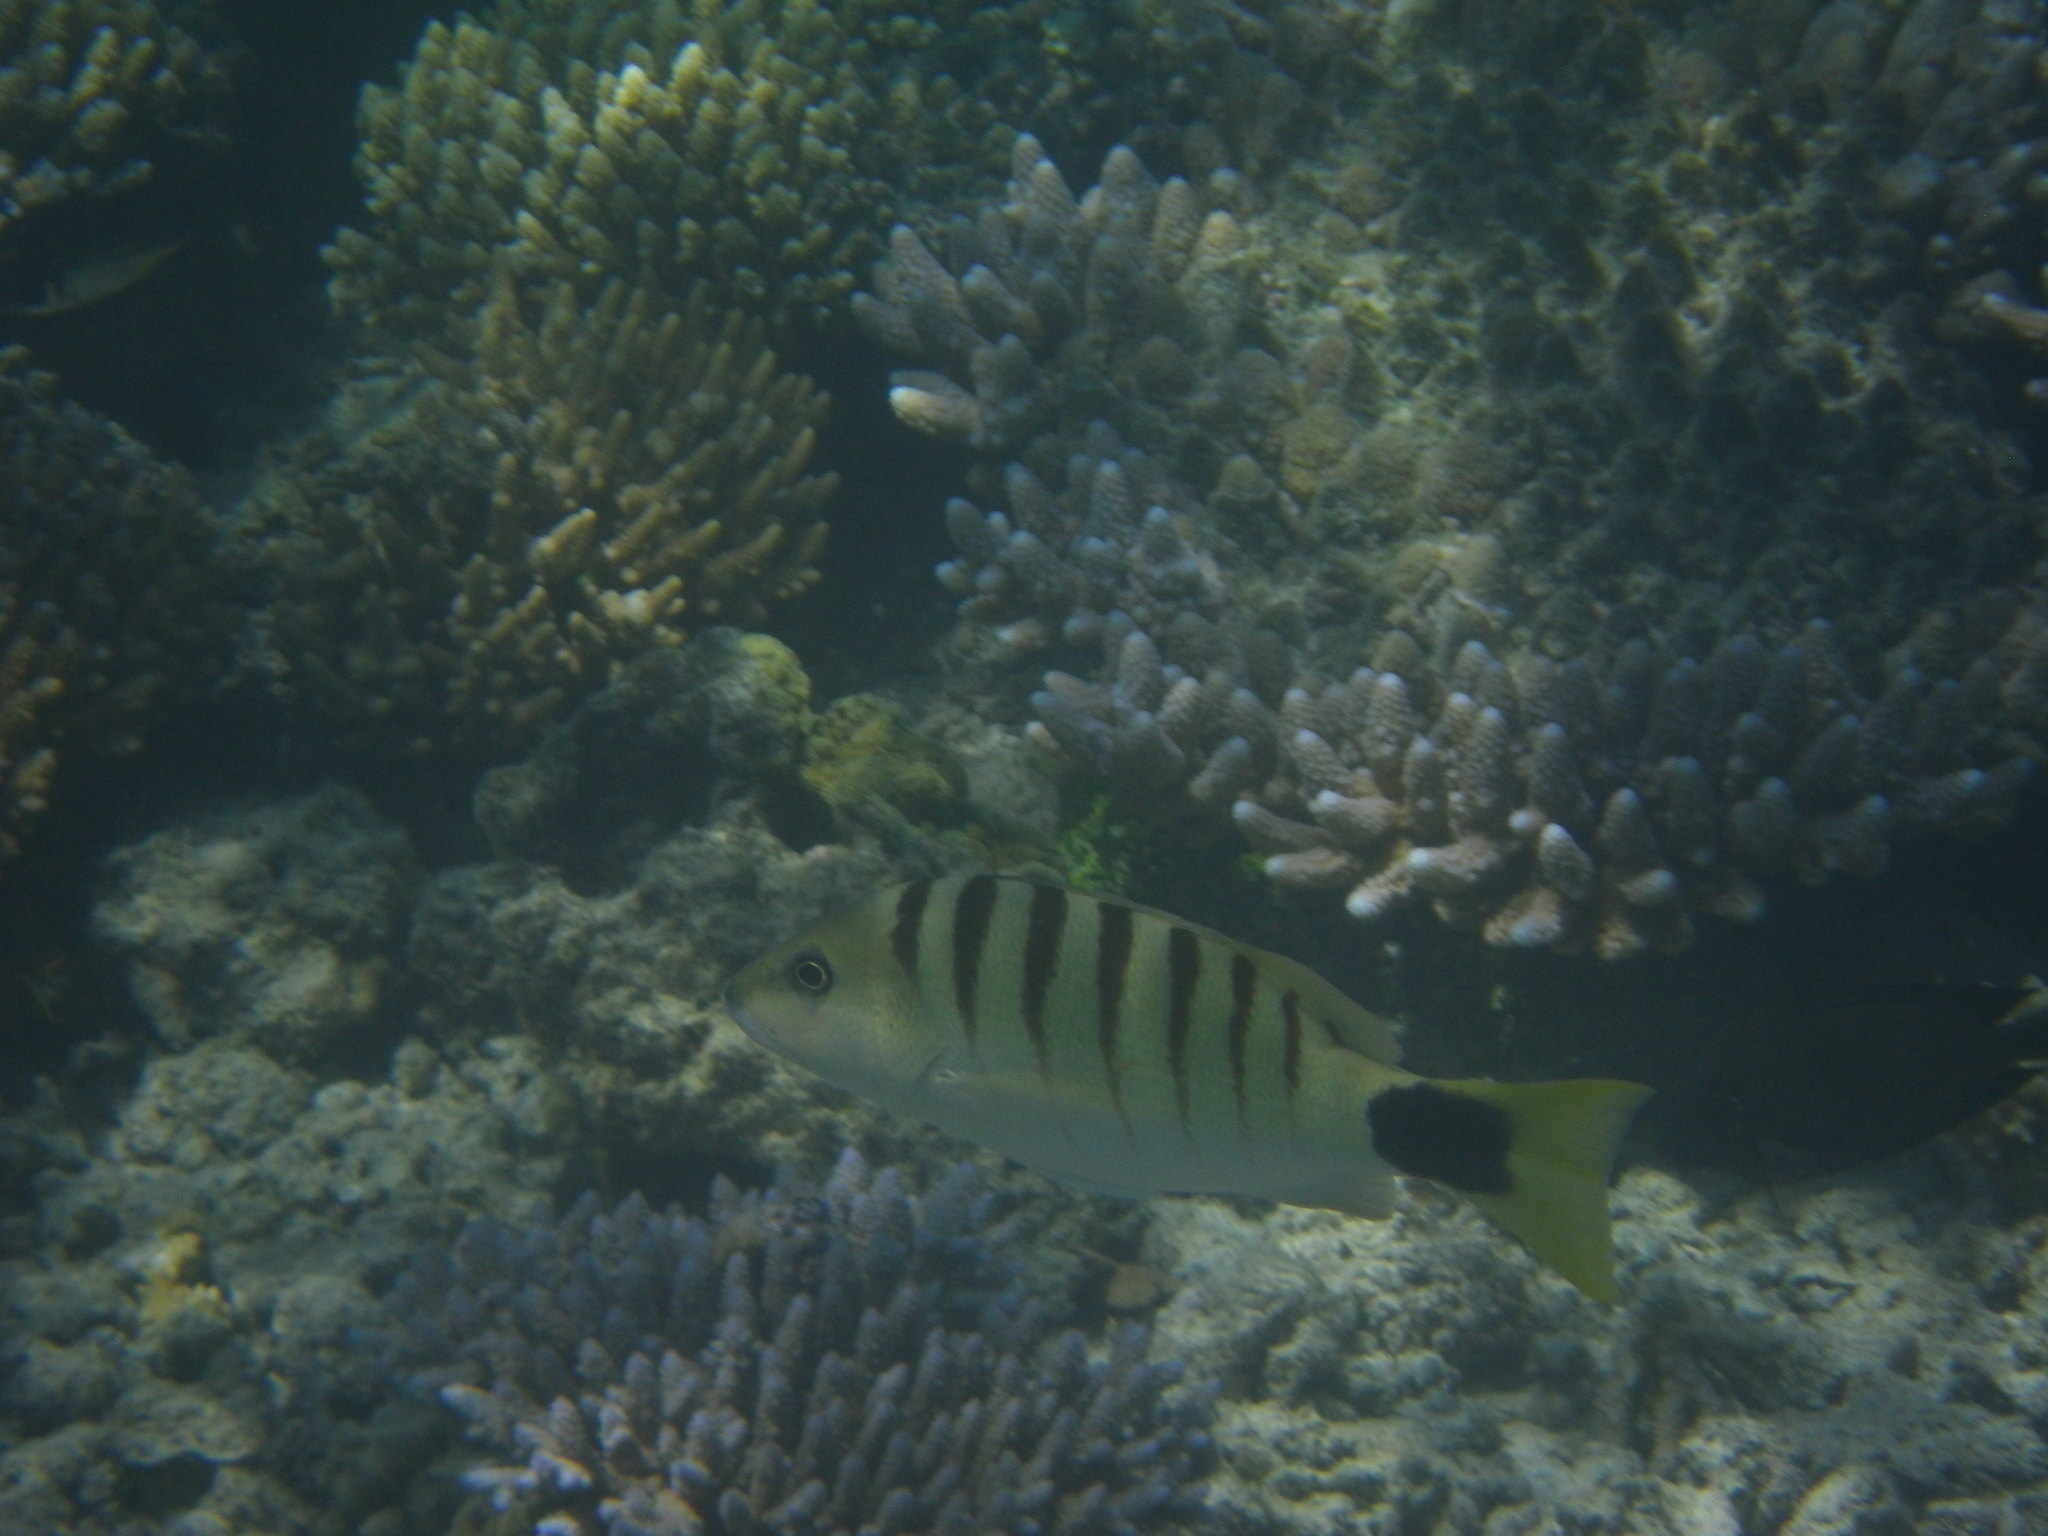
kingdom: Animalia
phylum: Chordata
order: Perciformes
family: Lutjanidae
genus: Lutjanus
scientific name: Lutjanus semicinctus
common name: Half-barred snapper
